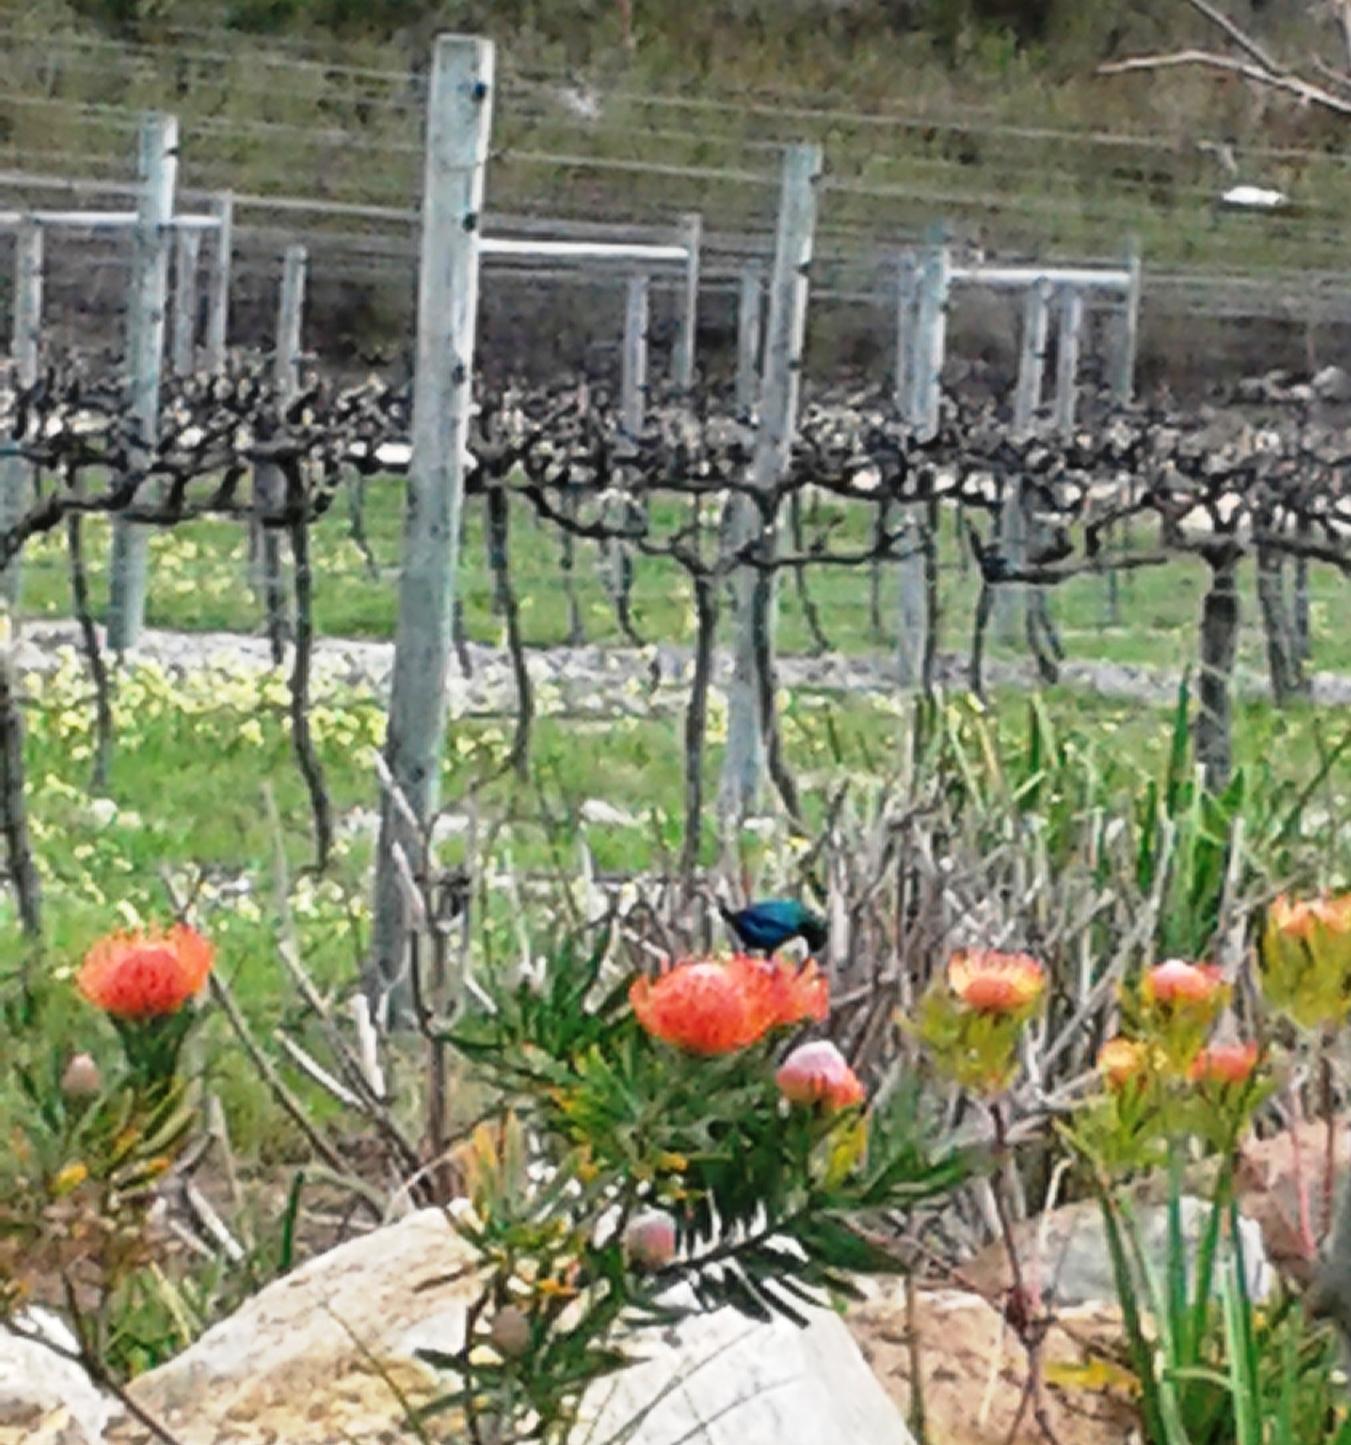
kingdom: Animalia
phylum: Chordata
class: Aves
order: Passeriformes
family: Nectariniidae
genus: Nectarinia
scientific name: Nectarinia famosa
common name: Malachite sunbird
